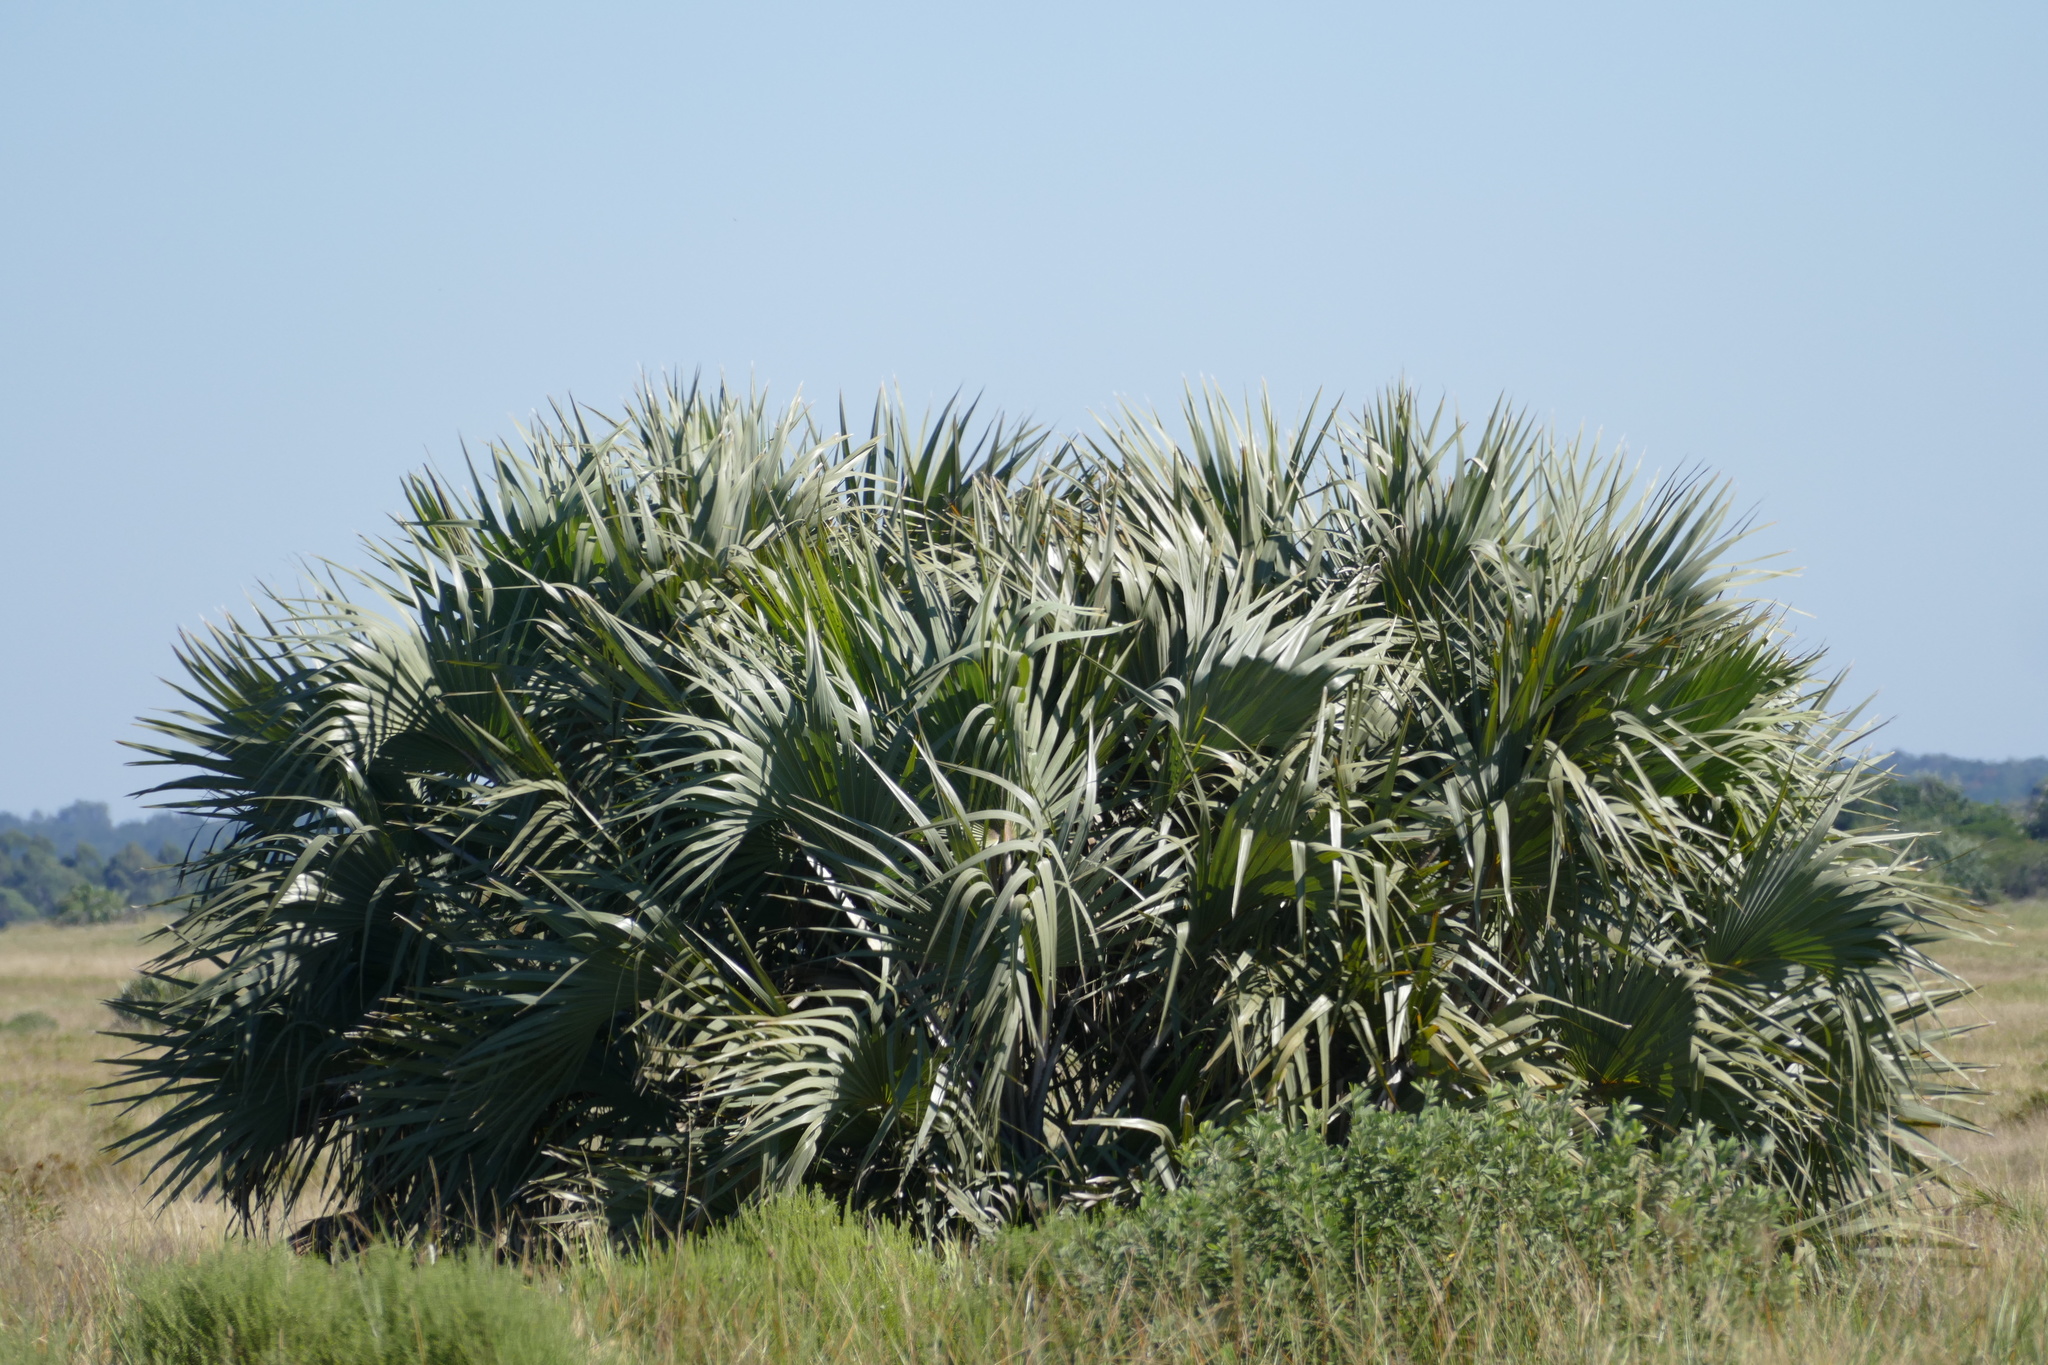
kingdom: Plantae
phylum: Tracheophyta
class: Liliopsida
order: Arecales
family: Arecaceae
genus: Hyphaene
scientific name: Hyphaene coriacea
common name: Ilala palm
